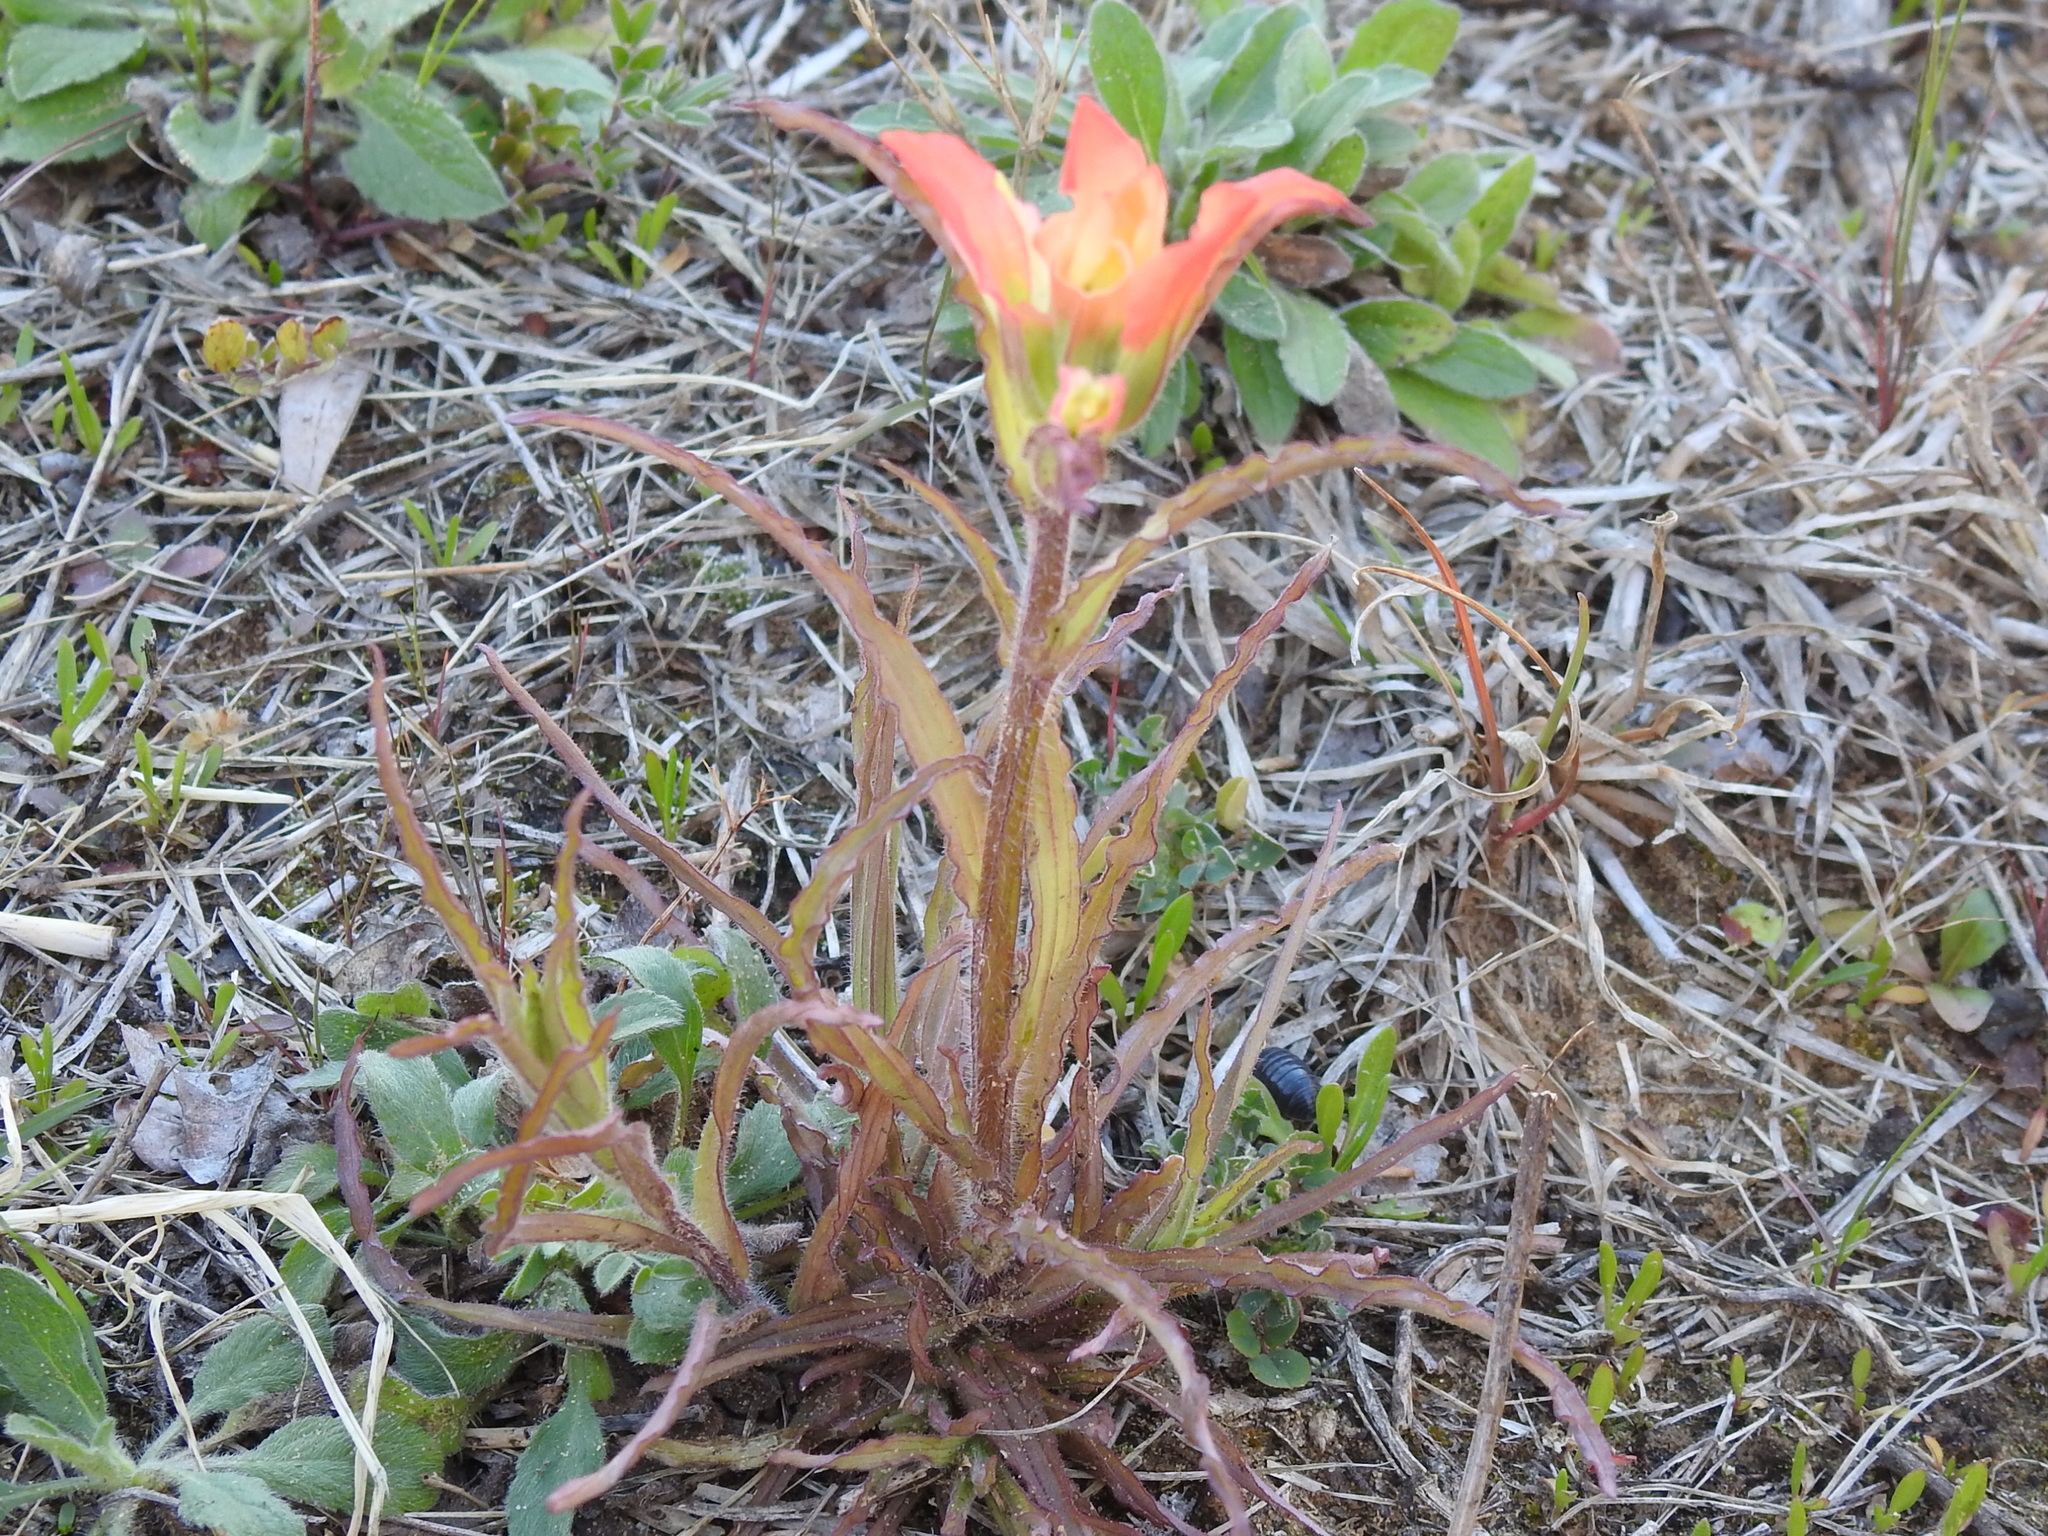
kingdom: Plantae
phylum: Tracheophyta
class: Magnoliopsida
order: Lamiales
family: Orobanchaceae
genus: Castilleja
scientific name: Castilleja indivisa
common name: Texas paintbrush
